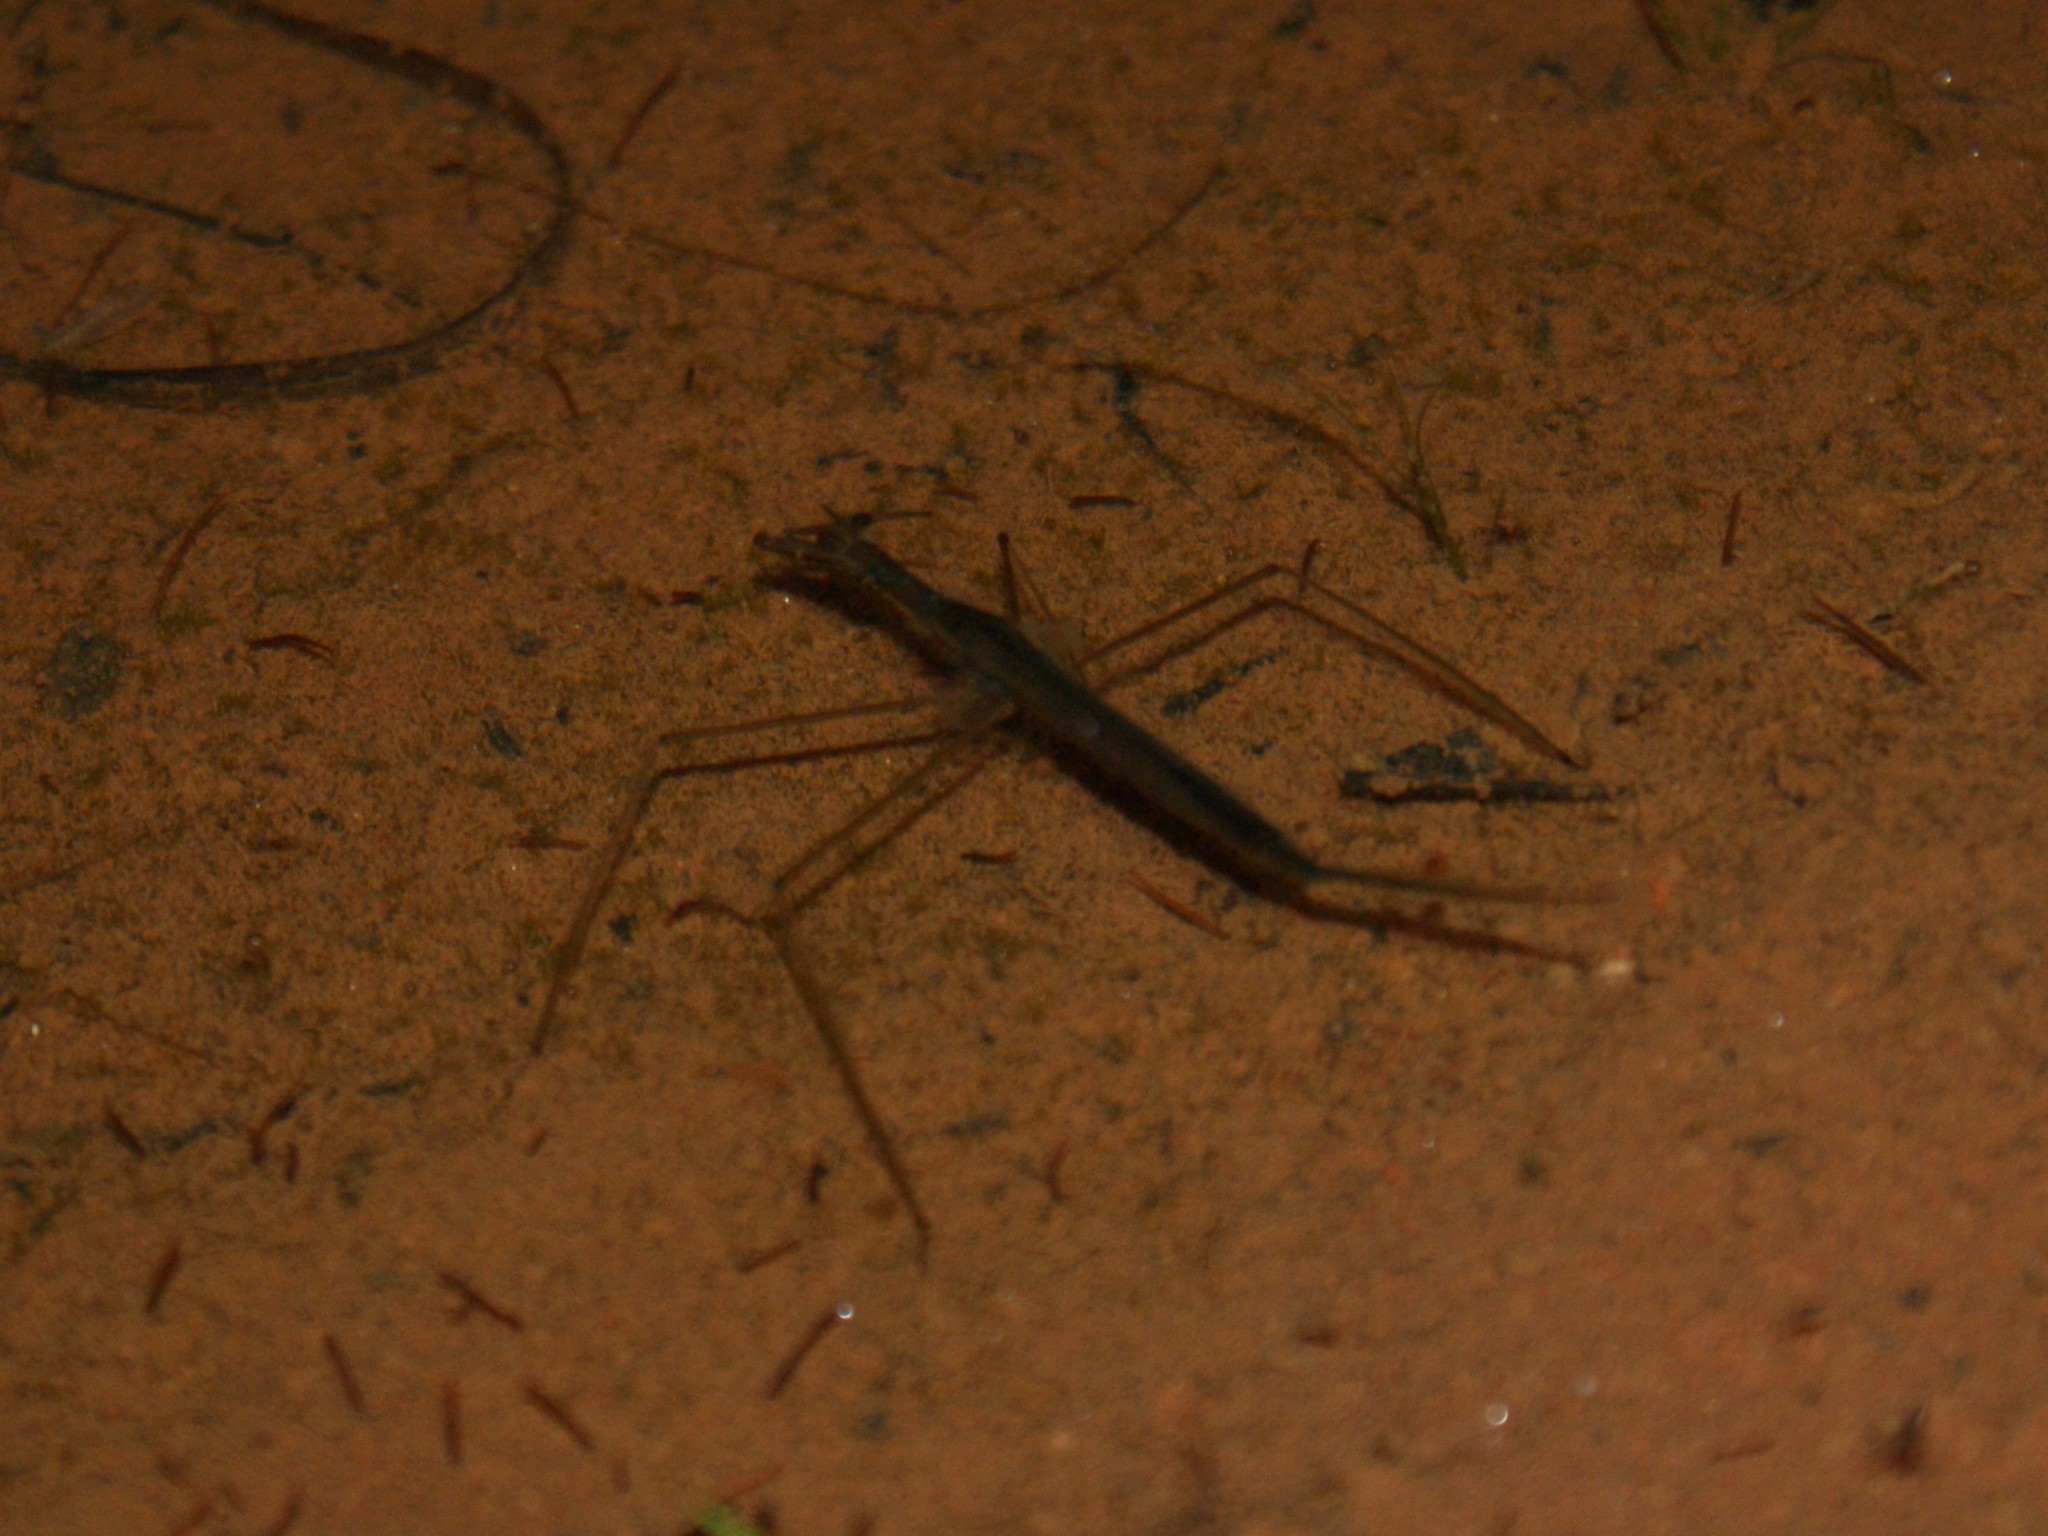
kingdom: Animalia
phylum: Arthropoda
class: Insecta
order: Hemiptera
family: Nepidae
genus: Ranatra
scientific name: Ranatra
